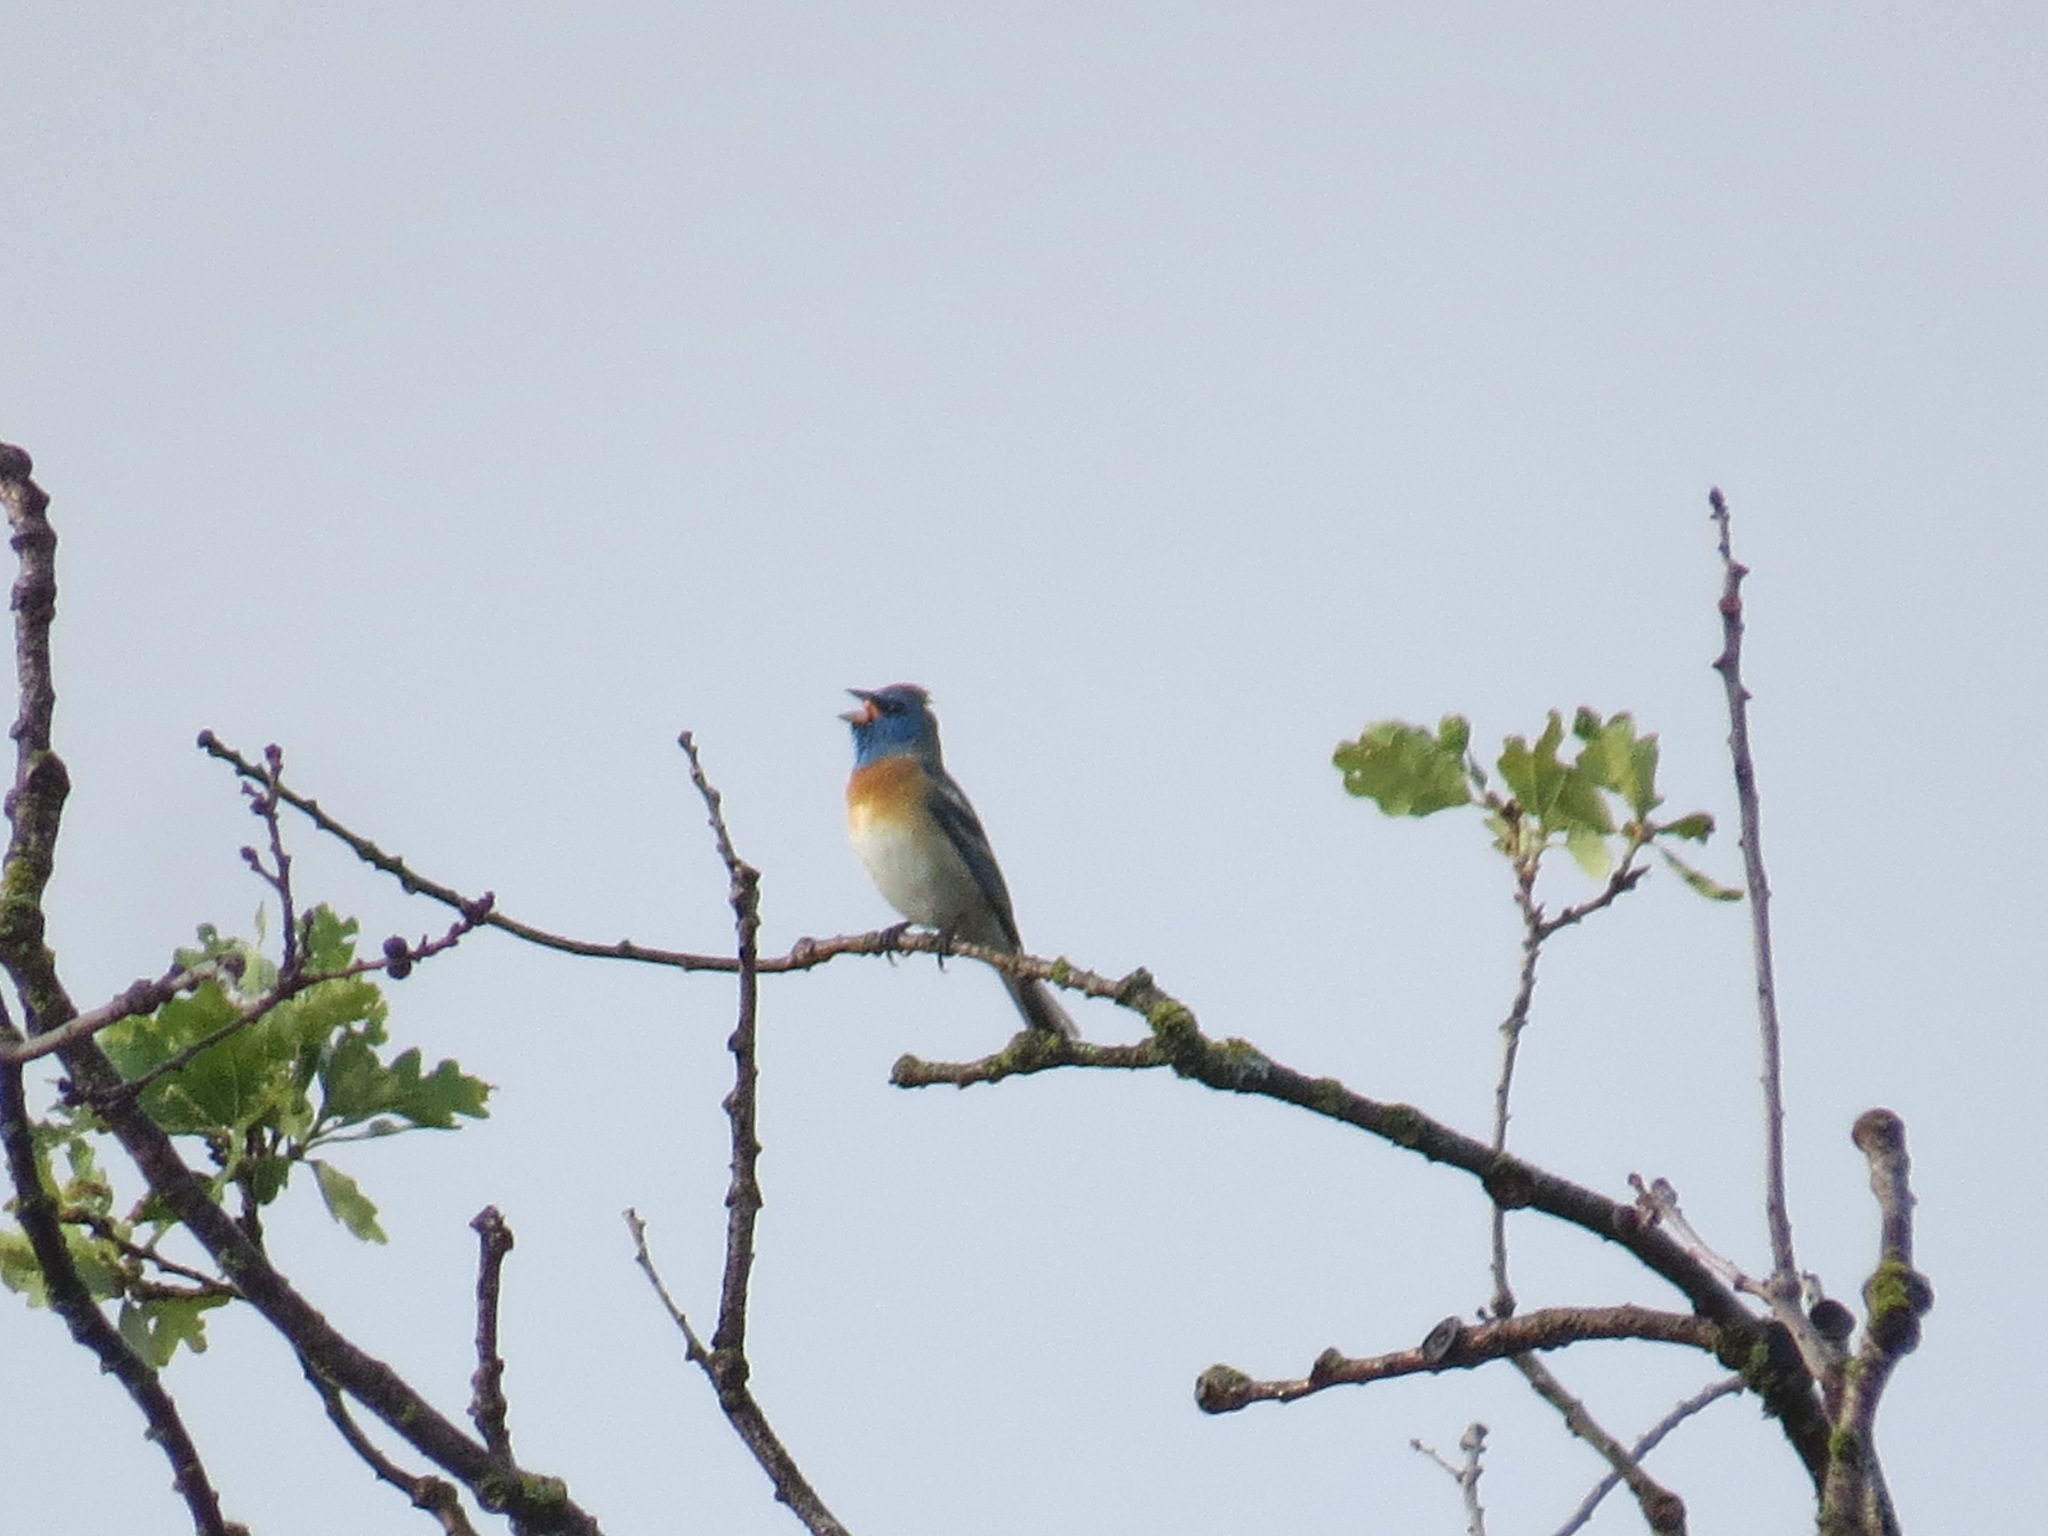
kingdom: Animalia
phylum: Chordata
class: Aves
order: Passeriformes
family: Cardinalidae
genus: Passerina
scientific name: Passerina amoena
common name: Lazuli bunting
